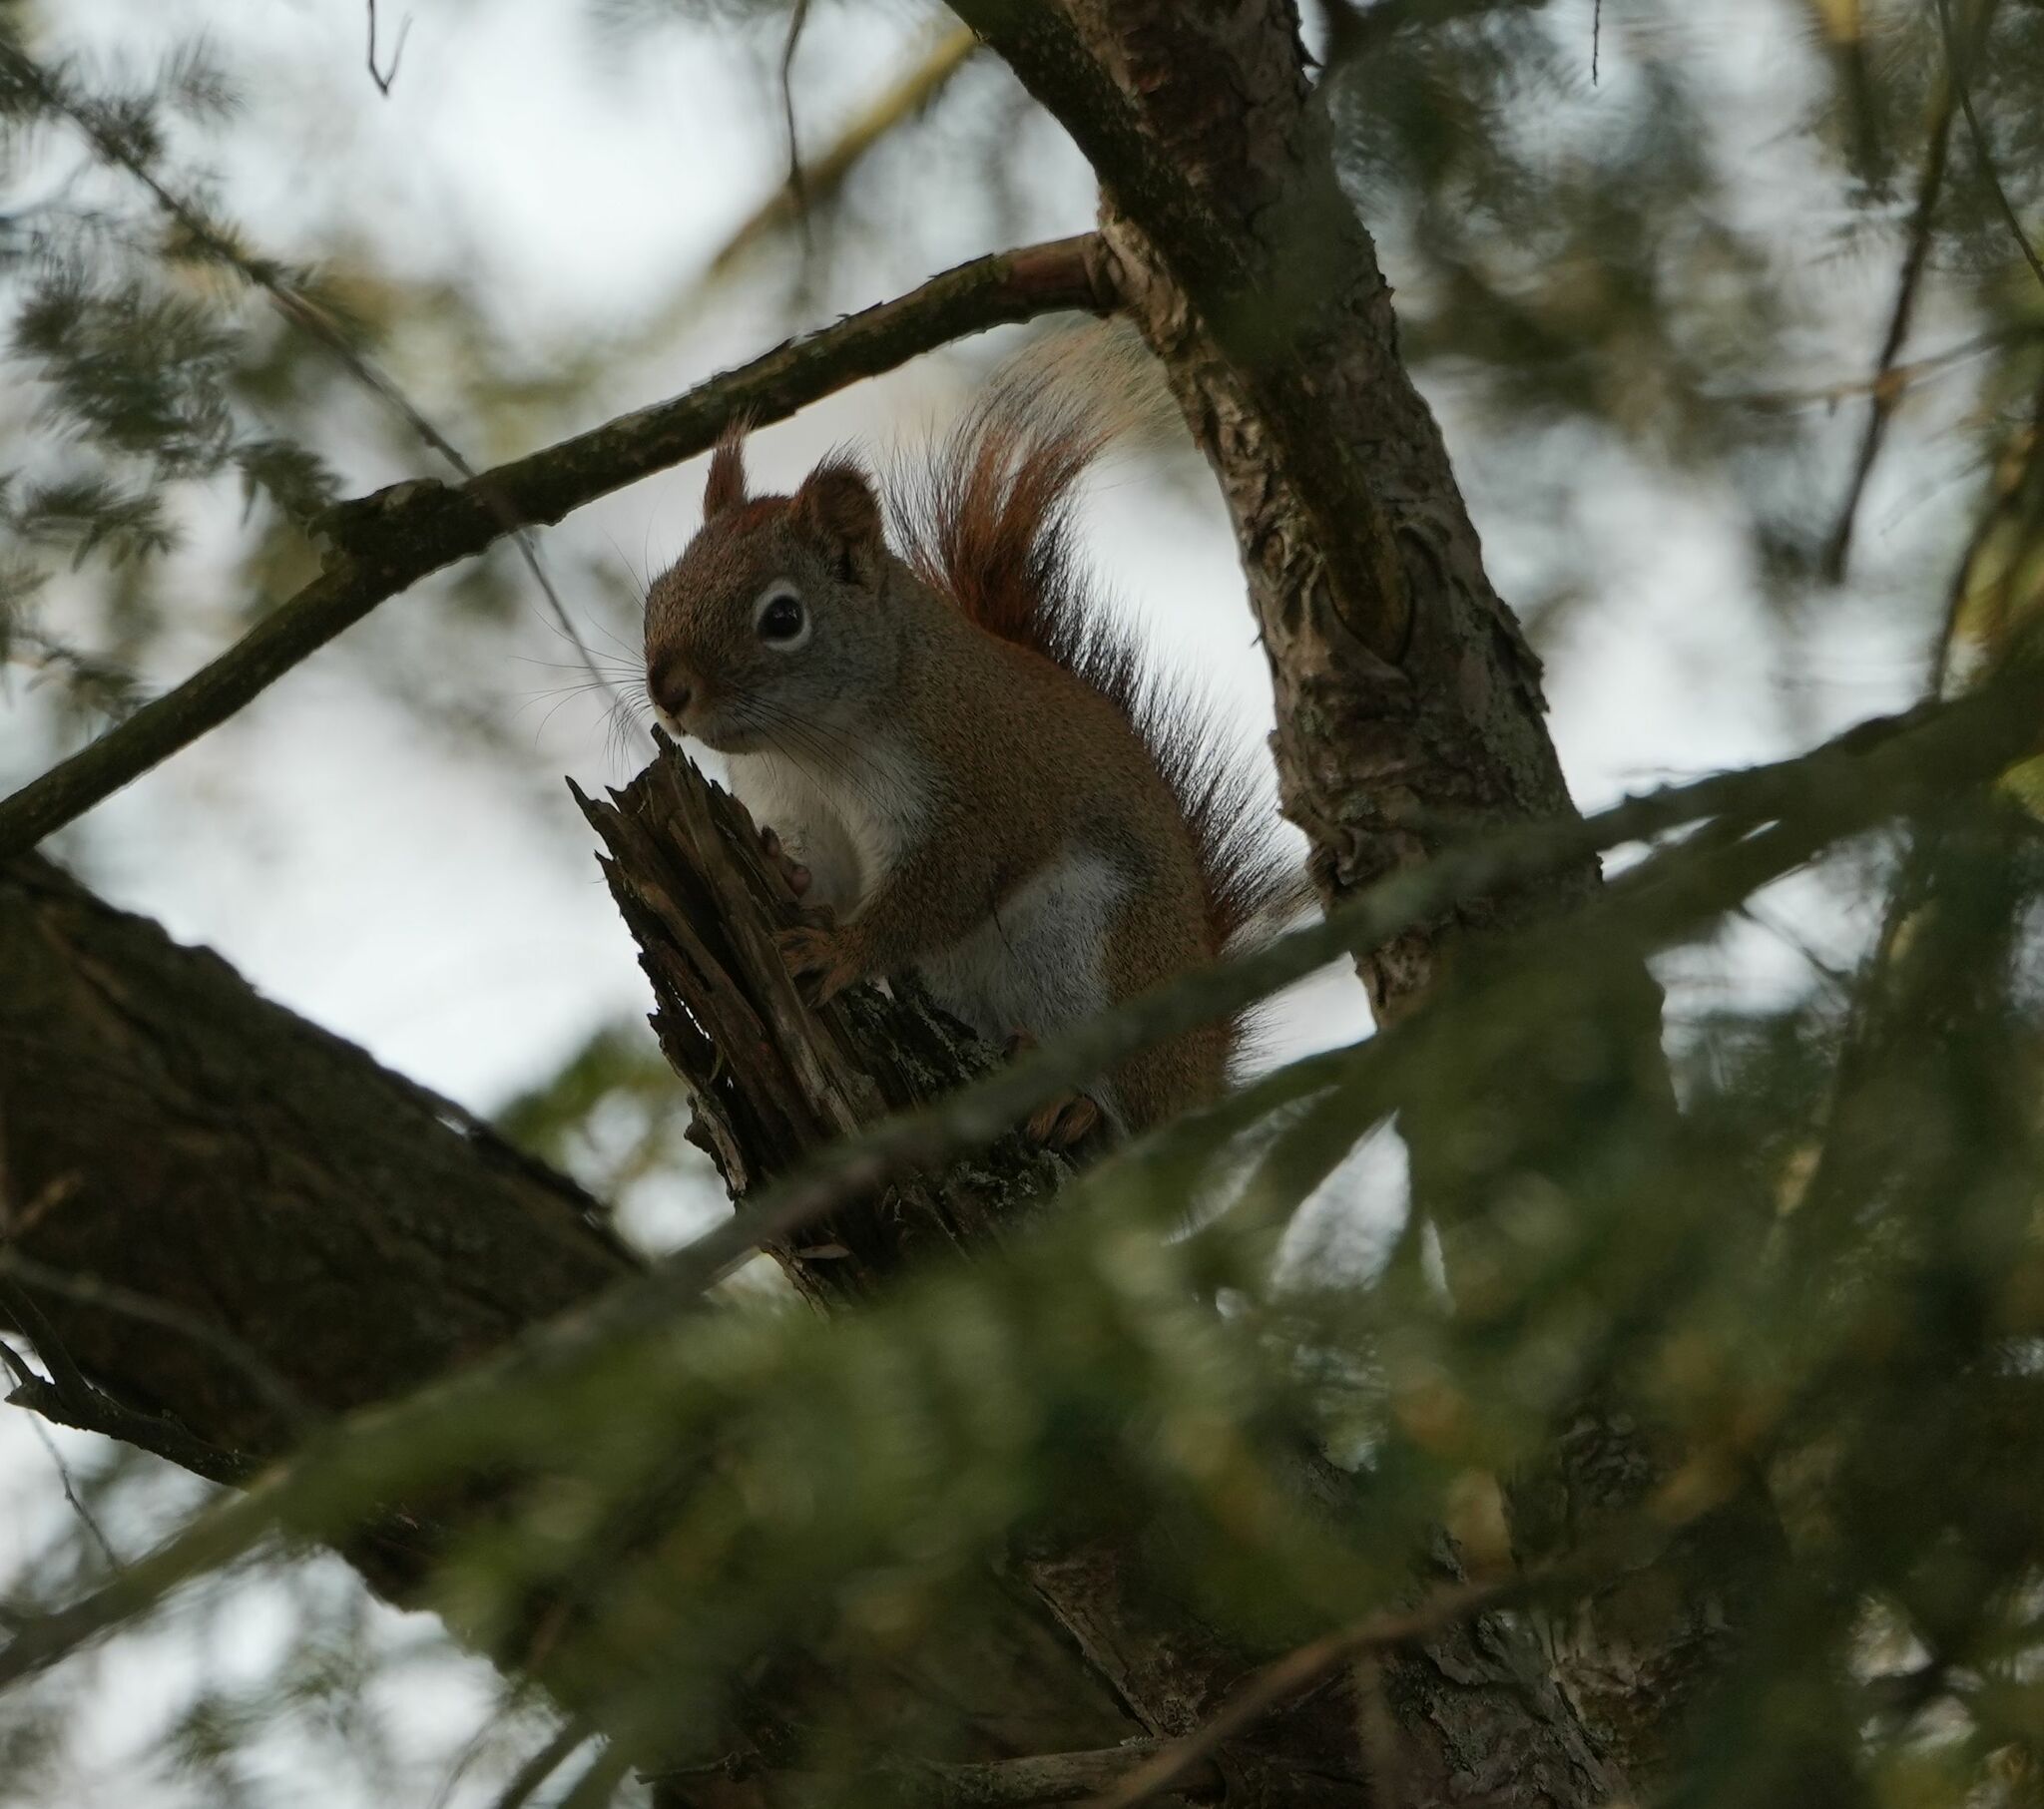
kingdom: Animalia
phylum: Chordata
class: Mammalia
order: Rodentia
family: Sciuridae
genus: Tamiasciurus
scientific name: Tamiasciurus hudsonicus
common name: Red squirrel
